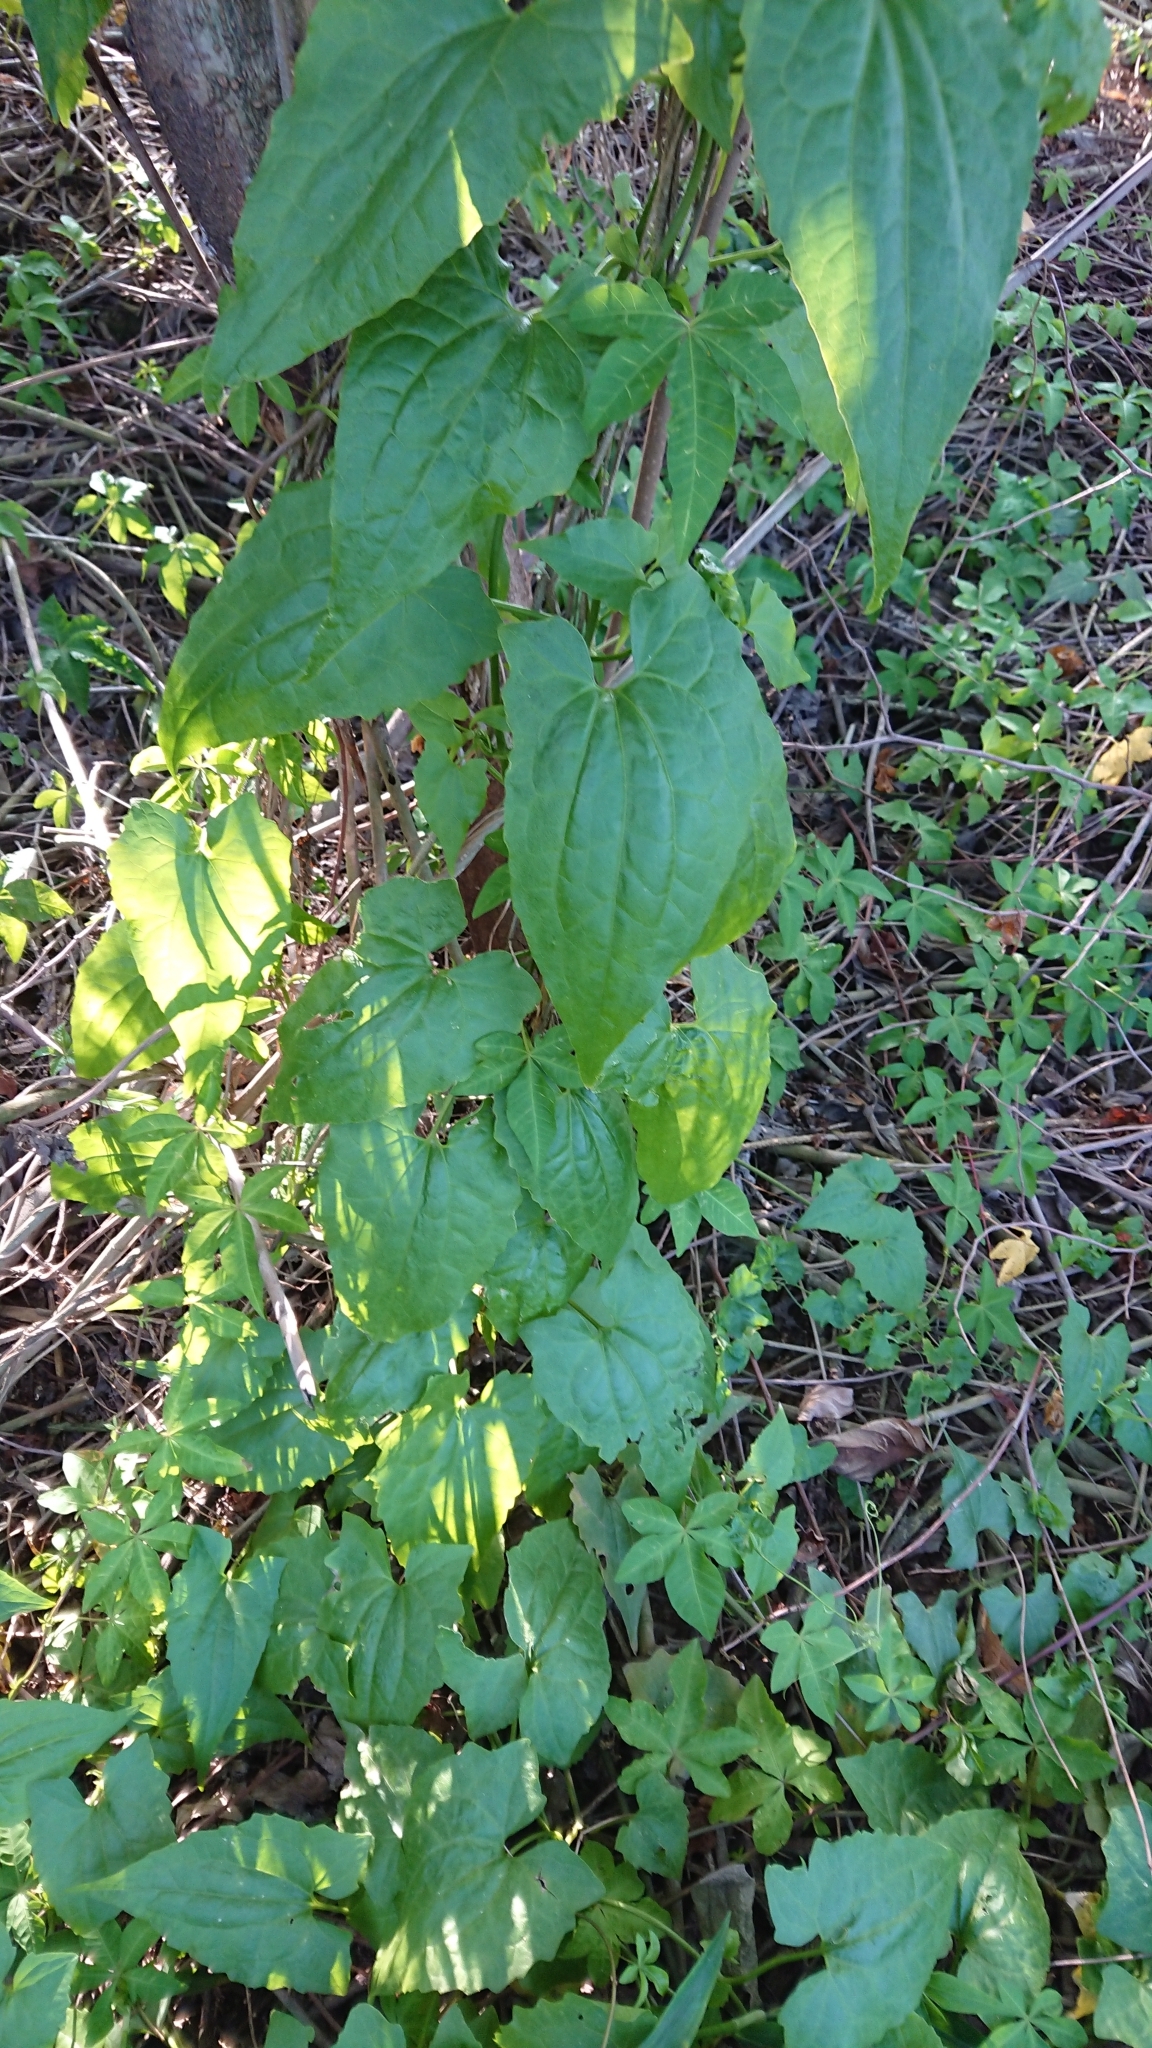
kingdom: Plantae
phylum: Tracheophyta
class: Magnoliopsida
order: Asterales
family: Asteraceae
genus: Mikania
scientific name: Mikania micrantha
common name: Mile-a-minute
